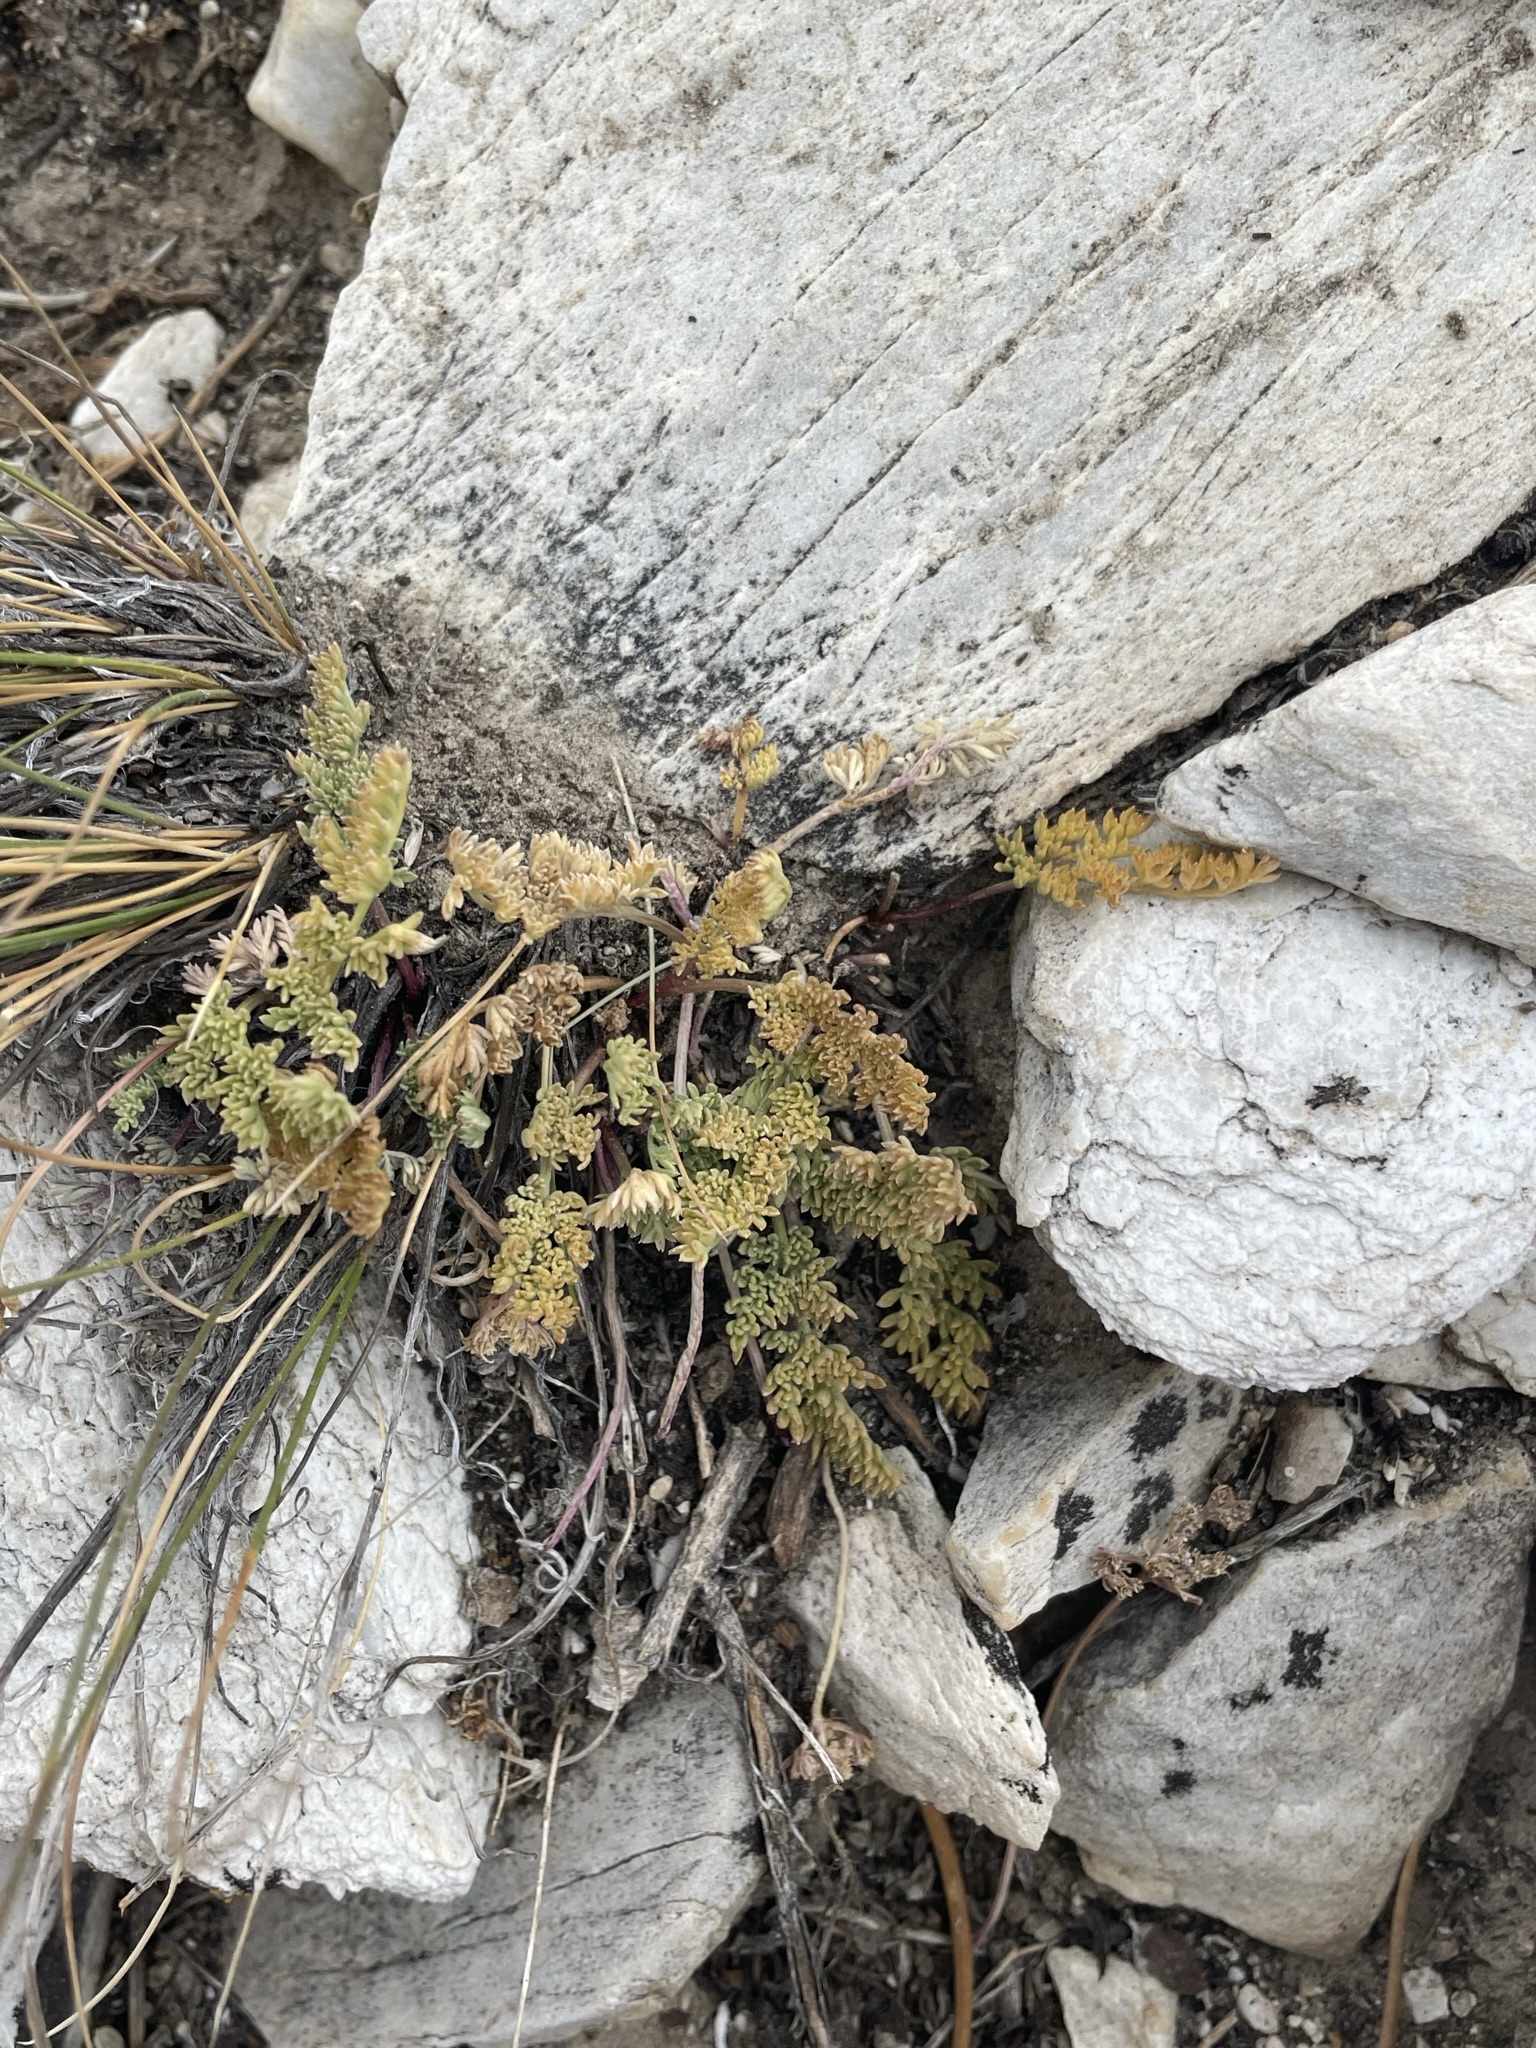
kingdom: Plantae
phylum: Tracheophyta
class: Magnoliopsida
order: Apiales
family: Apiaceae
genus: Aulospermum
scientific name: Aulospermum aboriginum
